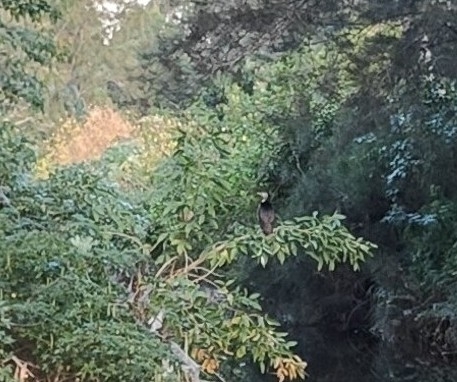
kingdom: Animalia
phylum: Chordata
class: Aves
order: Suliformes
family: Phalacrocoracidae
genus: Microcarbo
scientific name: Microcarbo melanoleucos
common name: Little pied cormorant
